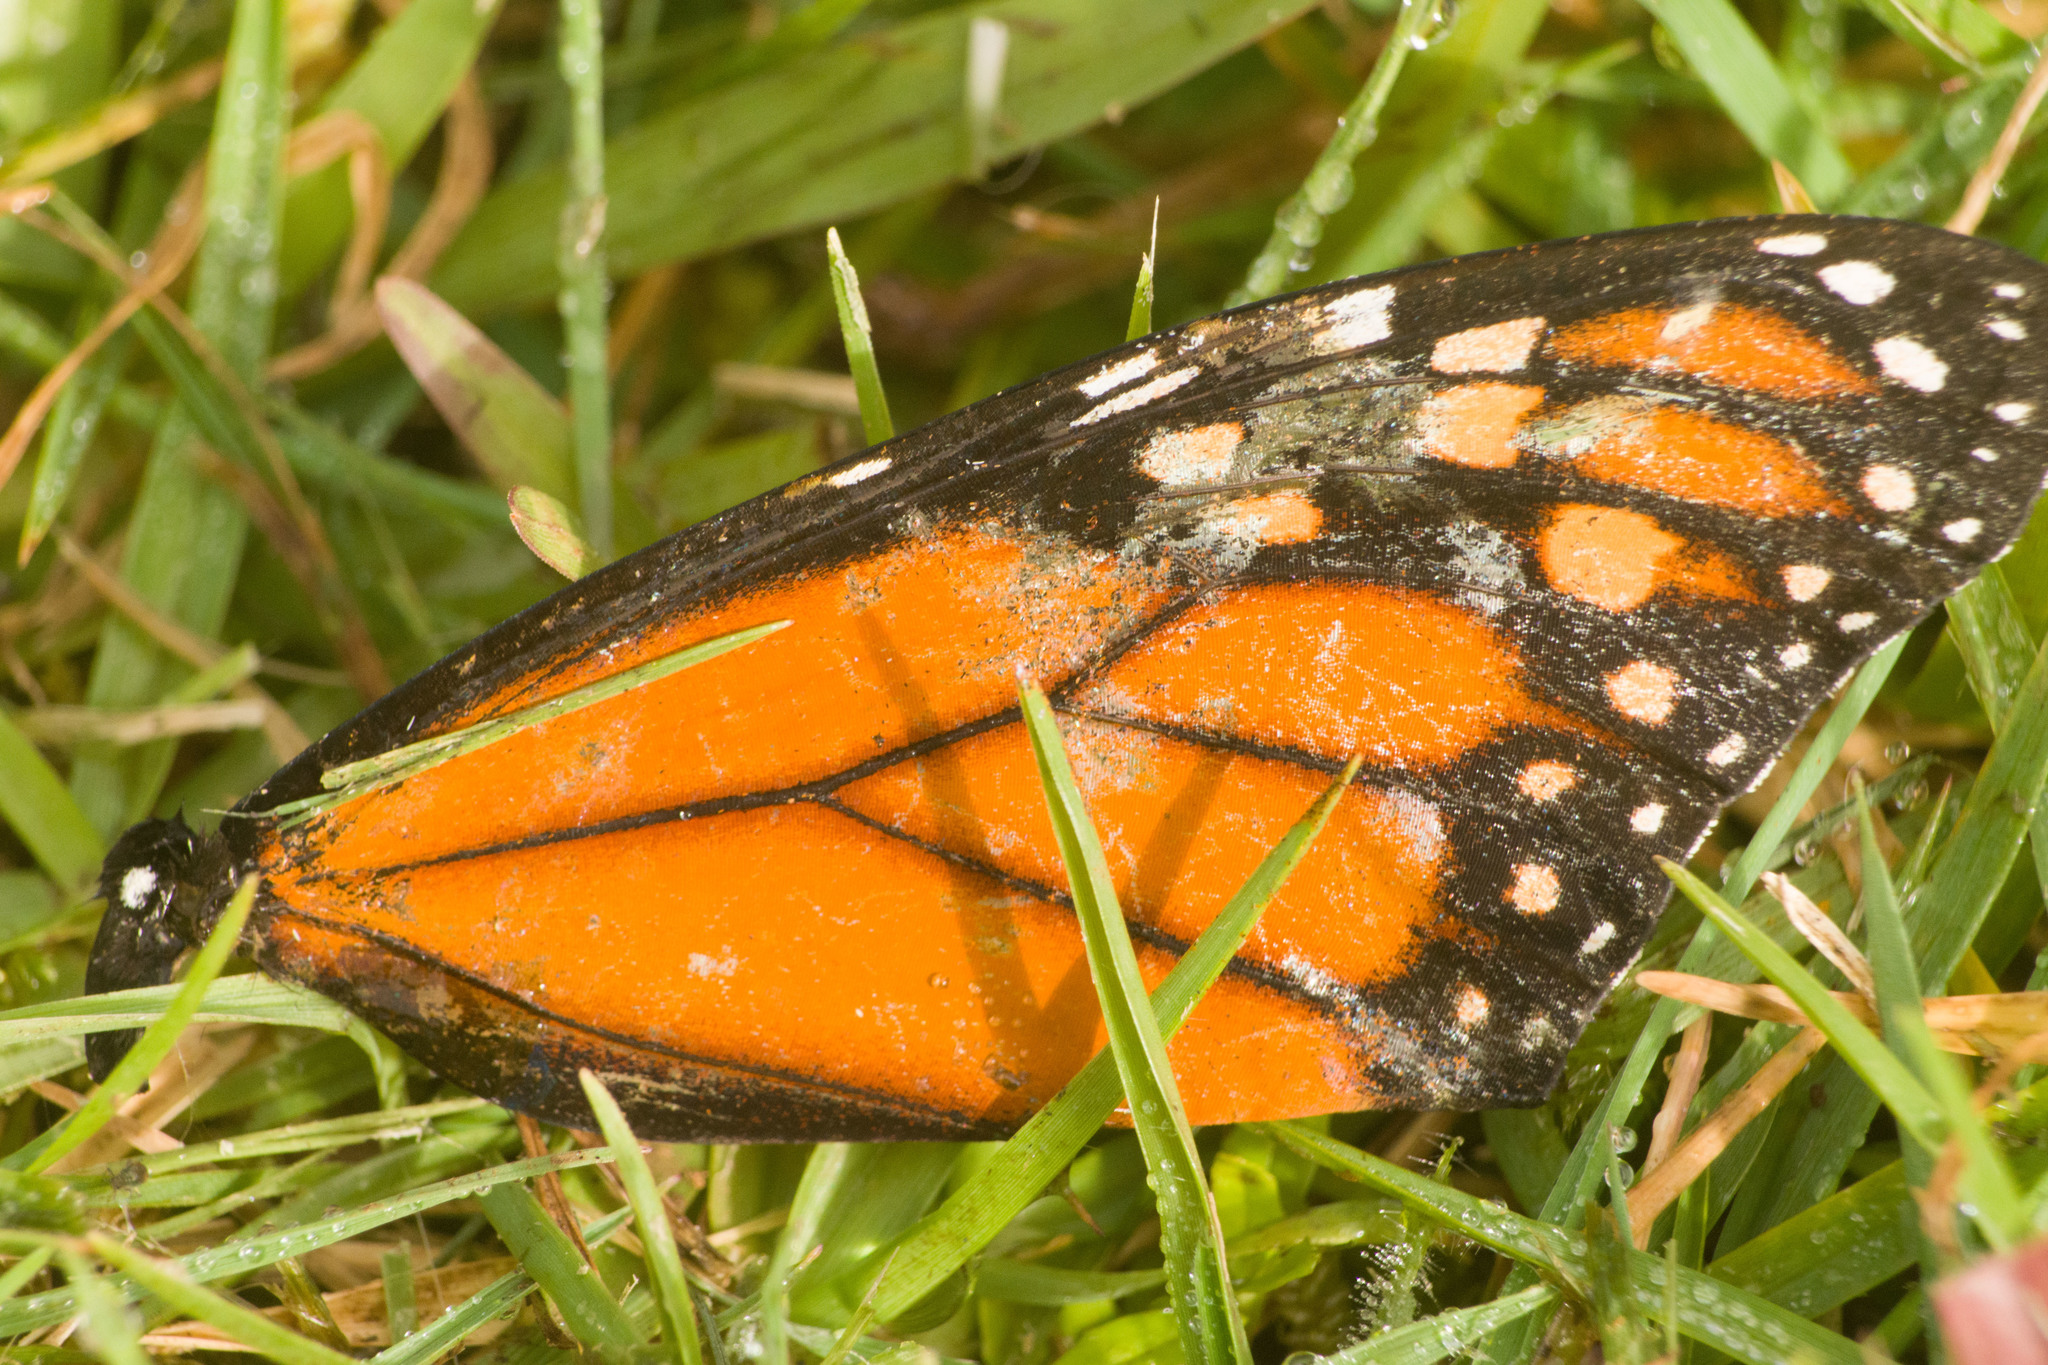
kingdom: Animalia
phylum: Arthropoda
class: Insecta
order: Lepidoptera
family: Nymphalidae
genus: Danaus
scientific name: Danaus plexippus
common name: Monarch
